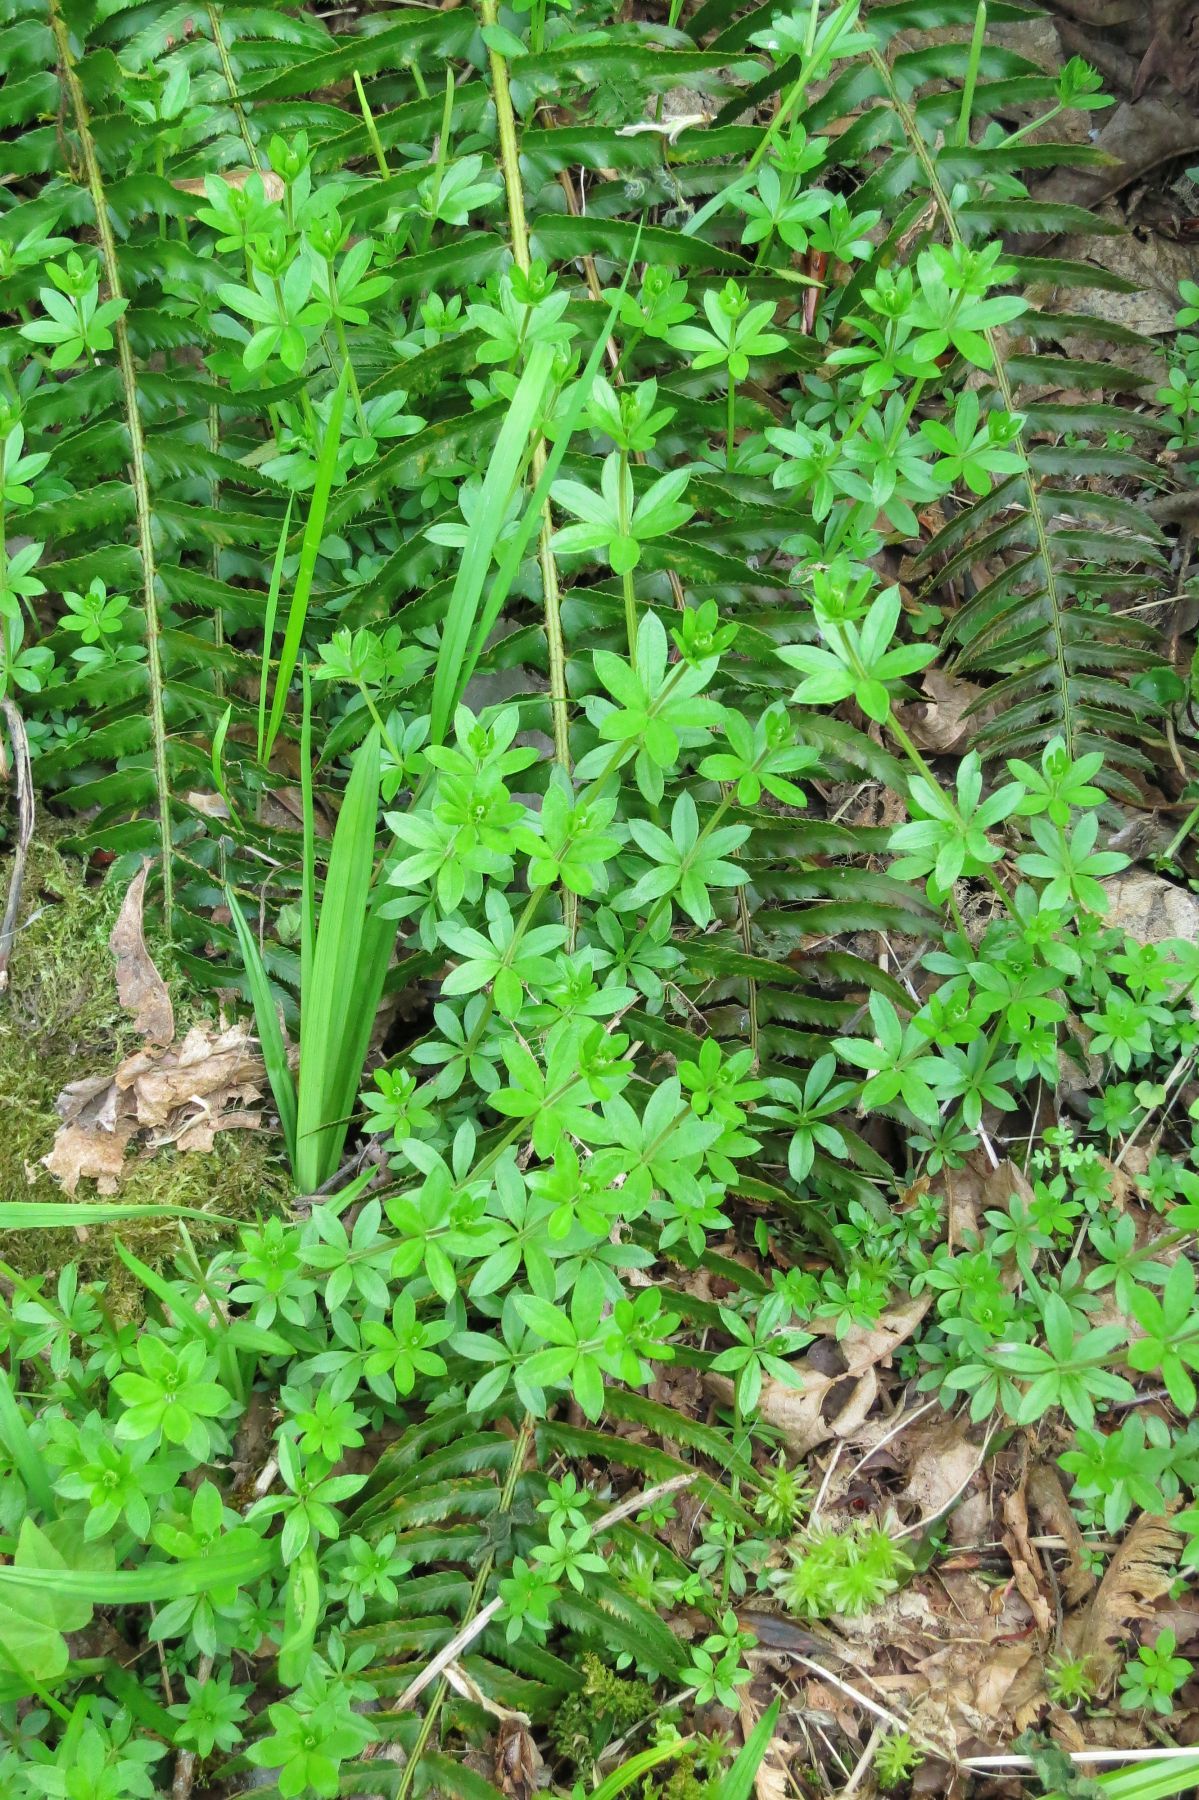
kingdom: Plantae
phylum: Tracheophyta
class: Magnoliopsida
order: Gentianales
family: Rubiaceae
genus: Galium
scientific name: Galium triflorum
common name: Fragrant bedstraw
